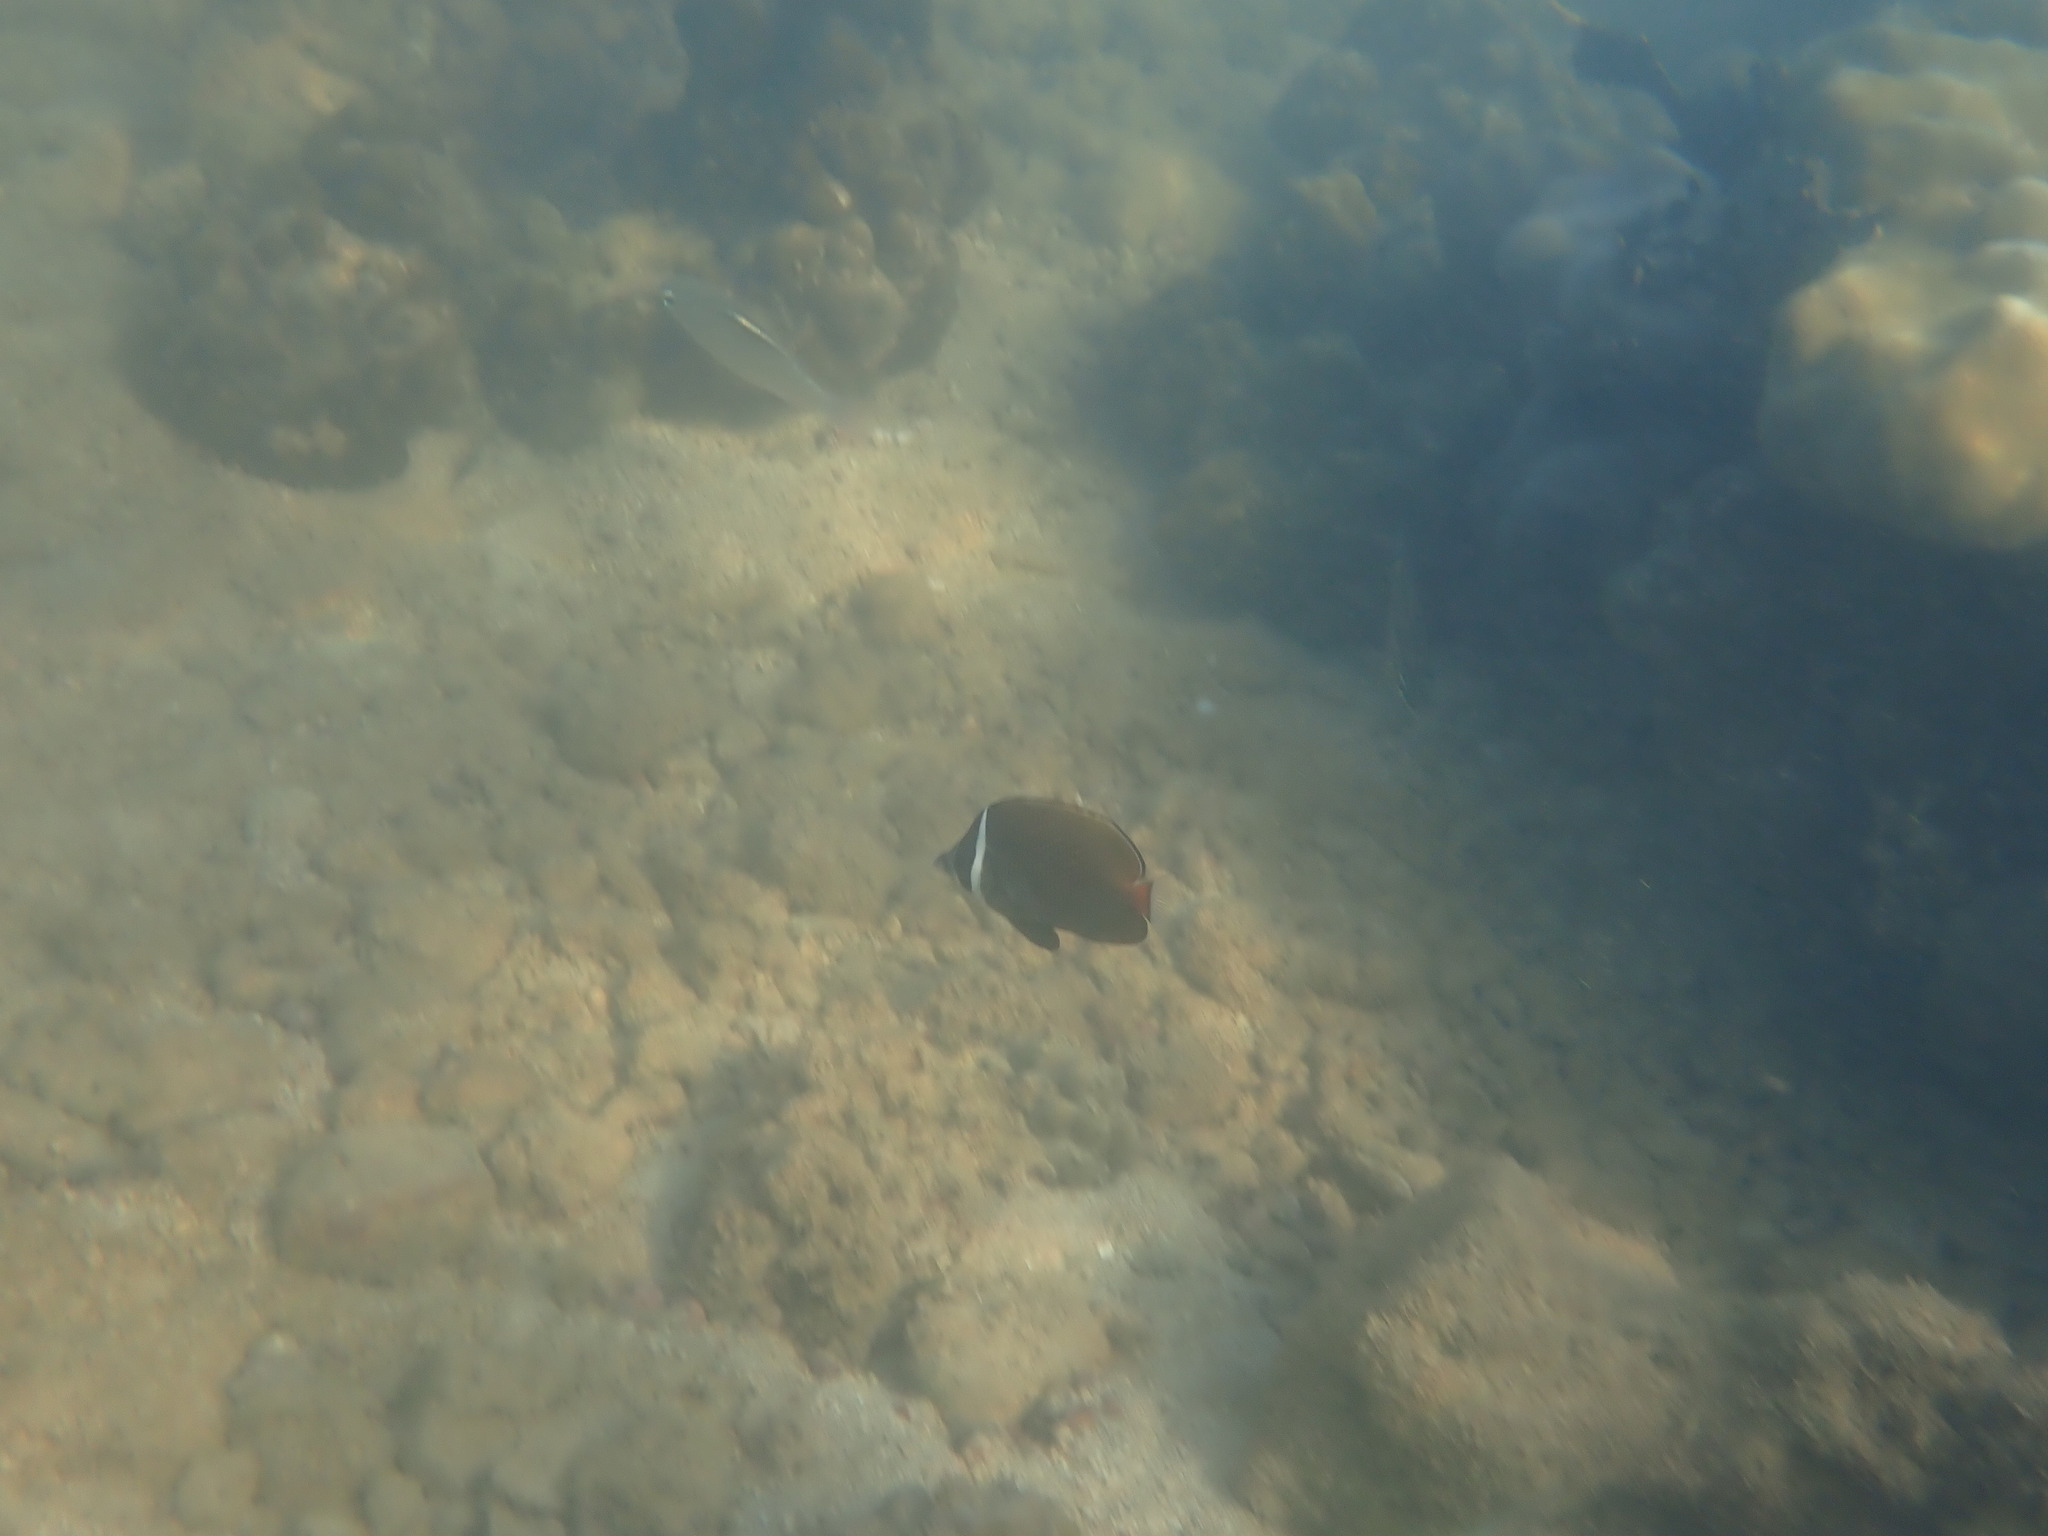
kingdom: Animalia
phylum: Chordata
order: Perciformes
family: Chaetodontidae
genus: Chaetodon
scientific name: Chaetodon collare
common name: Redtail butterflyfish
